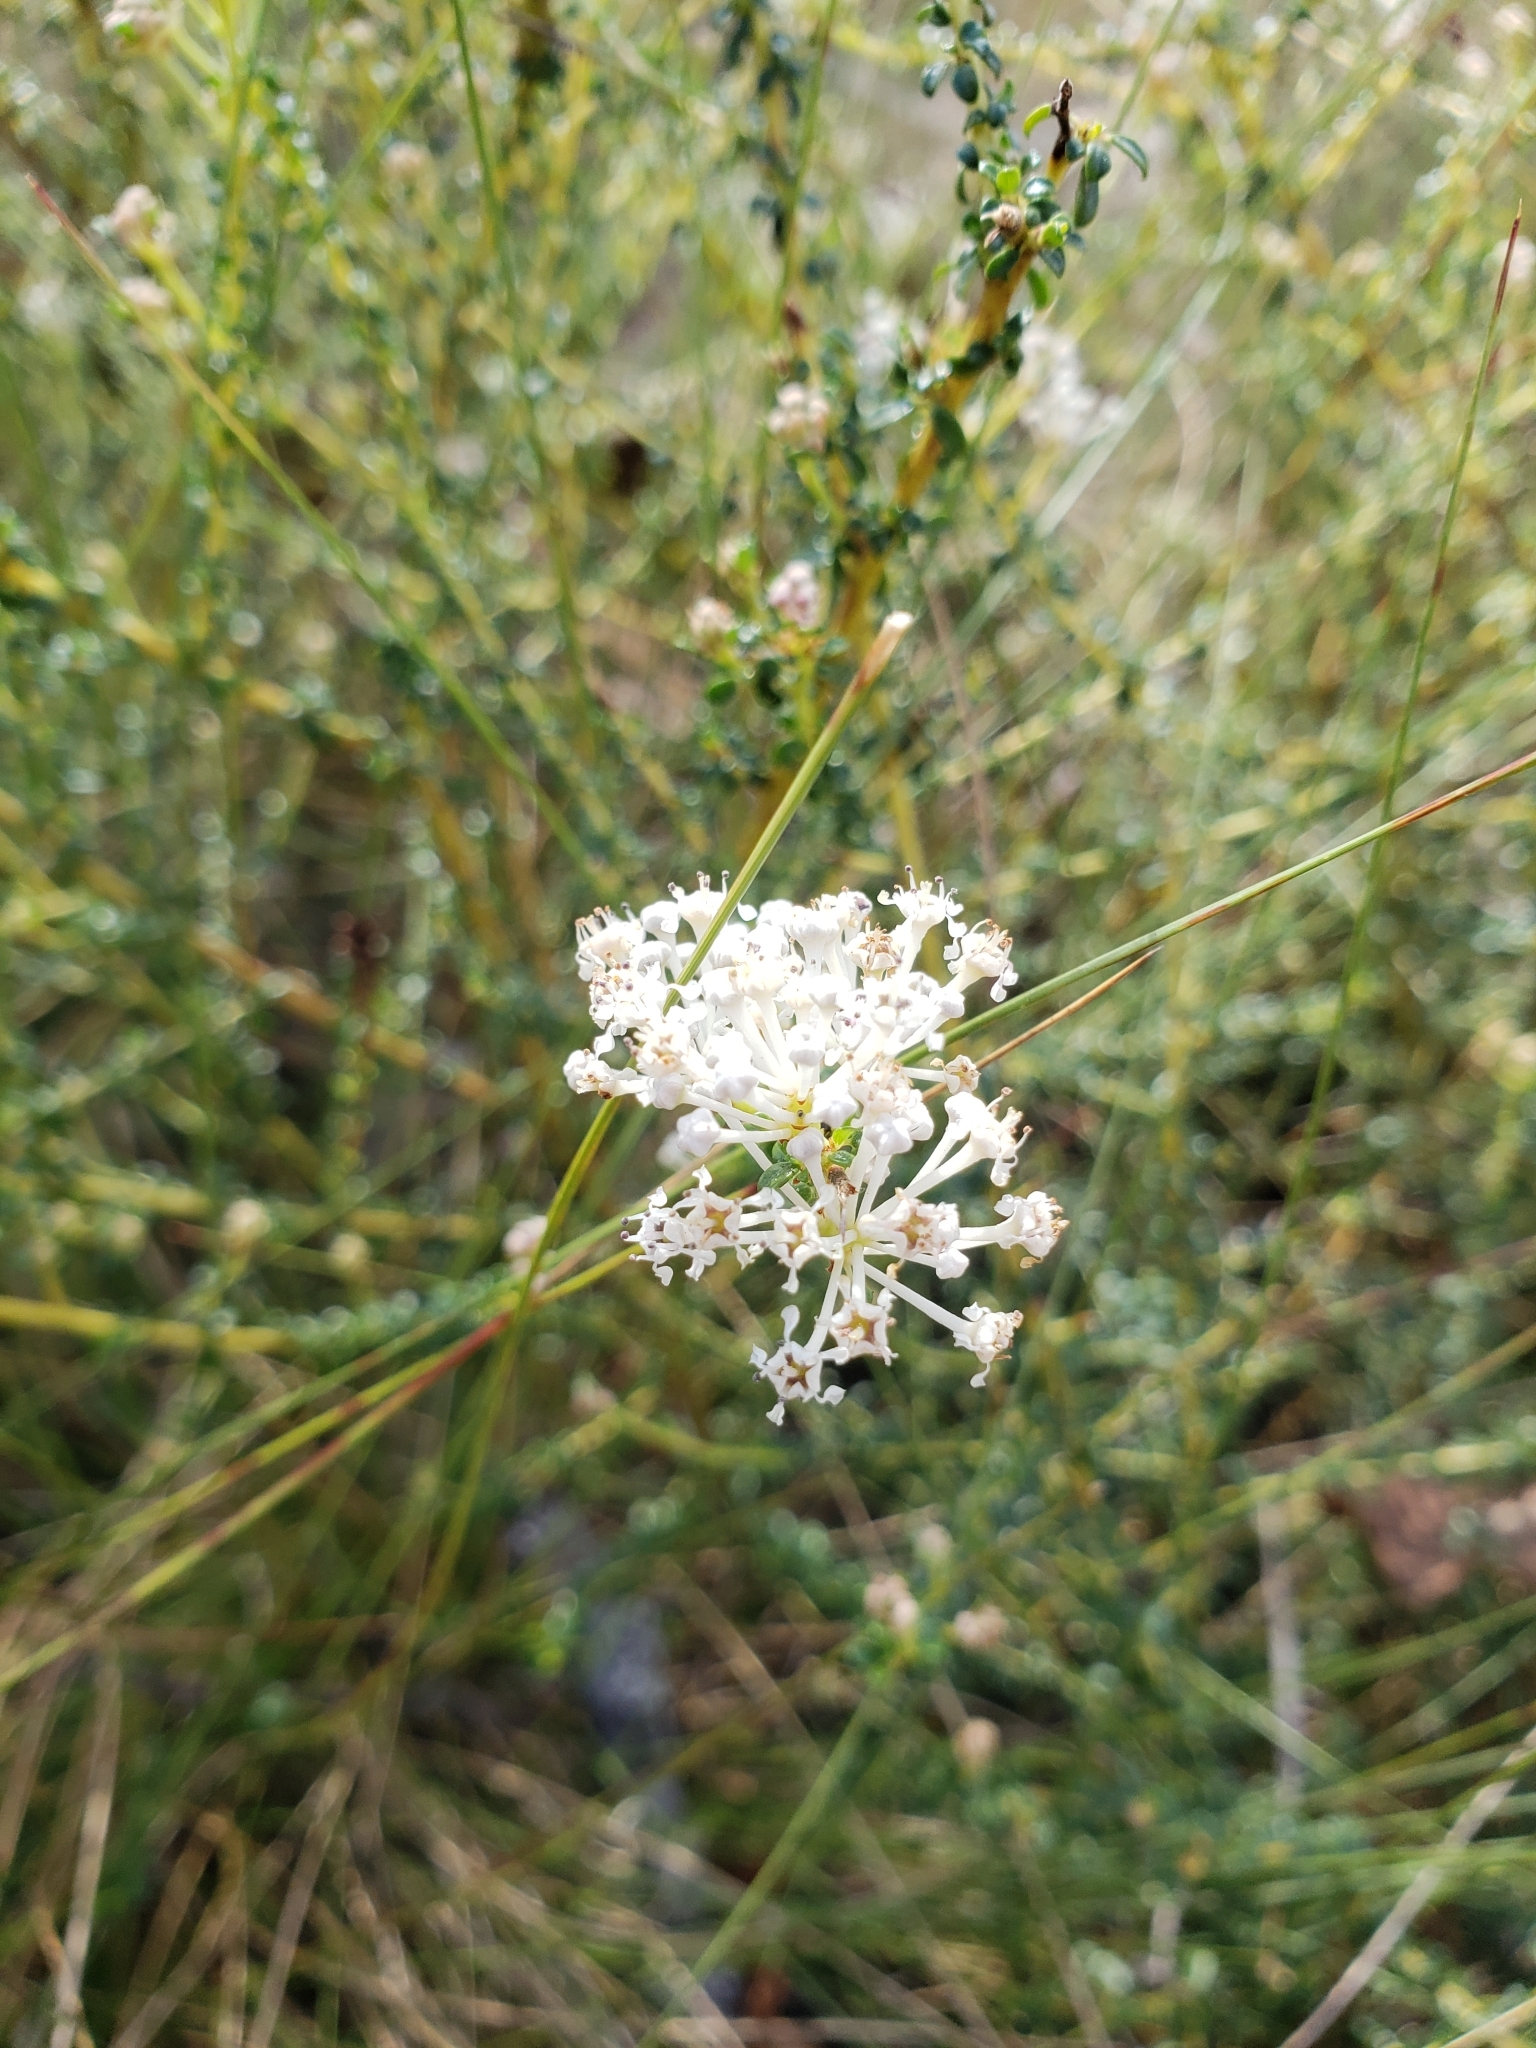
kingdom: Plantae
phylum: Tracheophyta
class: Magnoliopsida
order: Rosales
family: Rhamnaceae
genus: Ceanothus
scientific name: Ceanothus microphyllus
